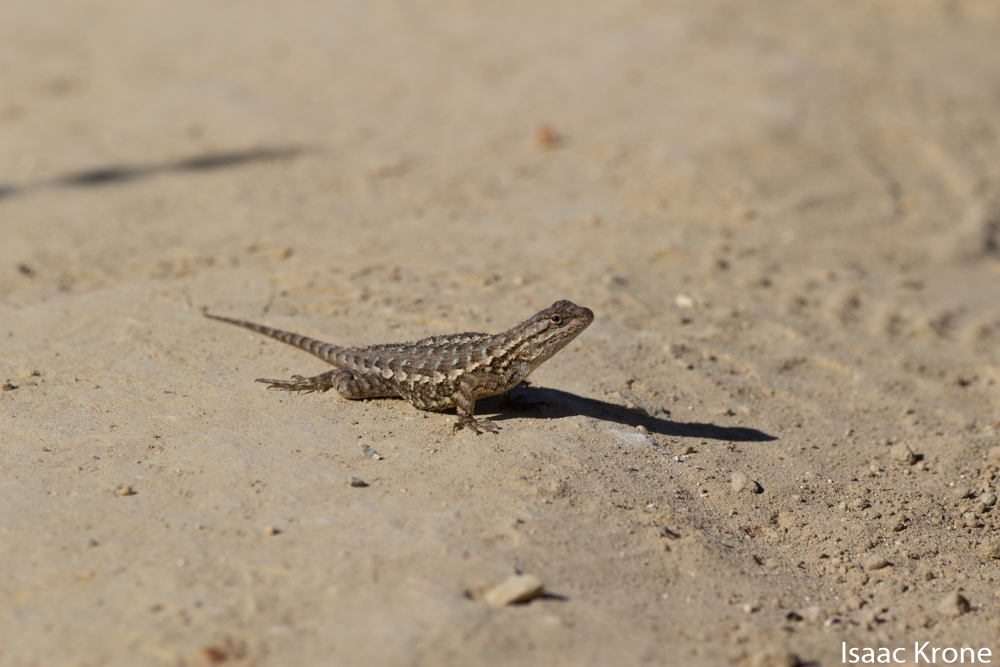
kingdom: Animalia
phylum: Chordata
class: Squamata
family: Phrynosomatidae
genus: Sceloporus
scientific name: Sceloporus occidentalis
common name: Western fence lizard
